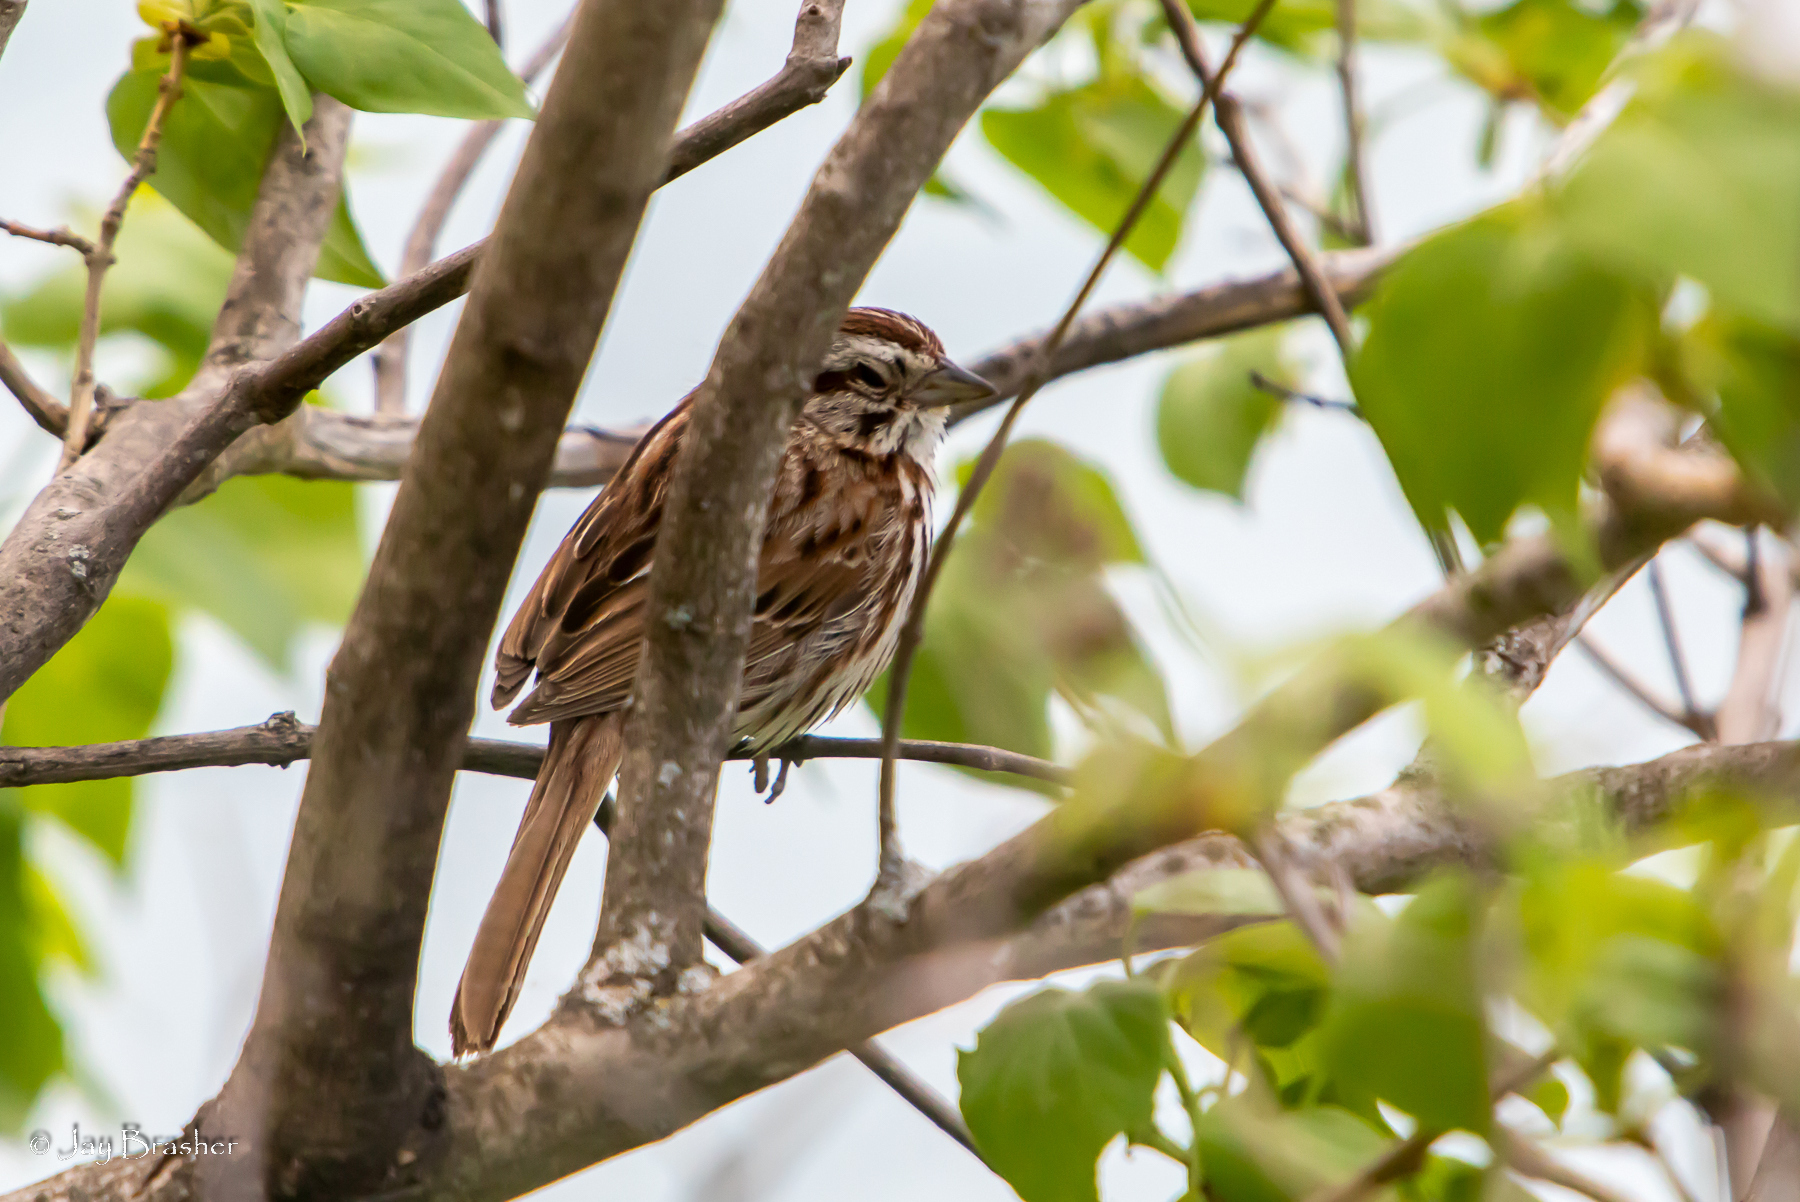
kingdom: Animalia
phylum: Chordata
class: Aves
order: Passeriformes
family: Passerellidae
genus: Melospiza
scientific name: Melospiza melodia
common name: Song sparrow
